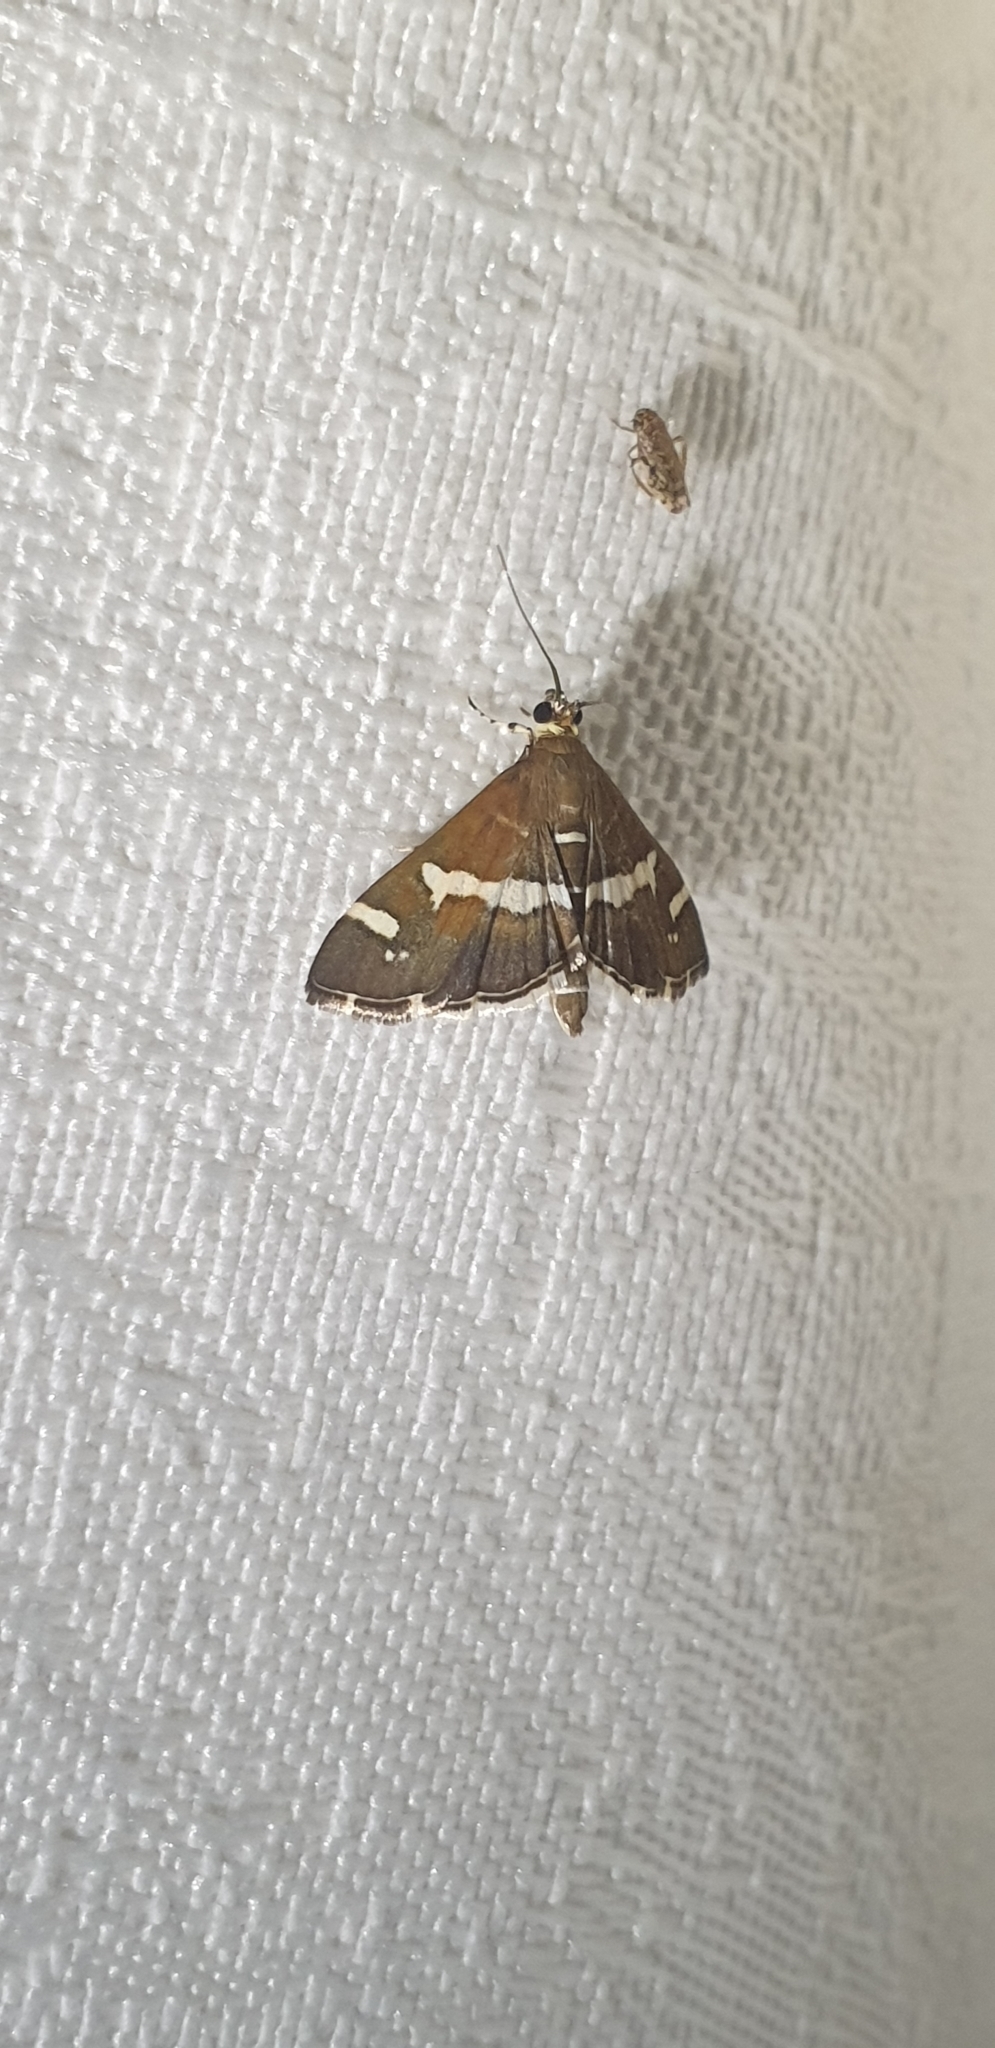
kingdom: Animalia
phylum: Arthropoda
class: Insecta
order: Lepidoptera
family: Crambidae
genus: Spoladea
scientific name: Spoladea recurvalis
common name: Beet webworm moth
